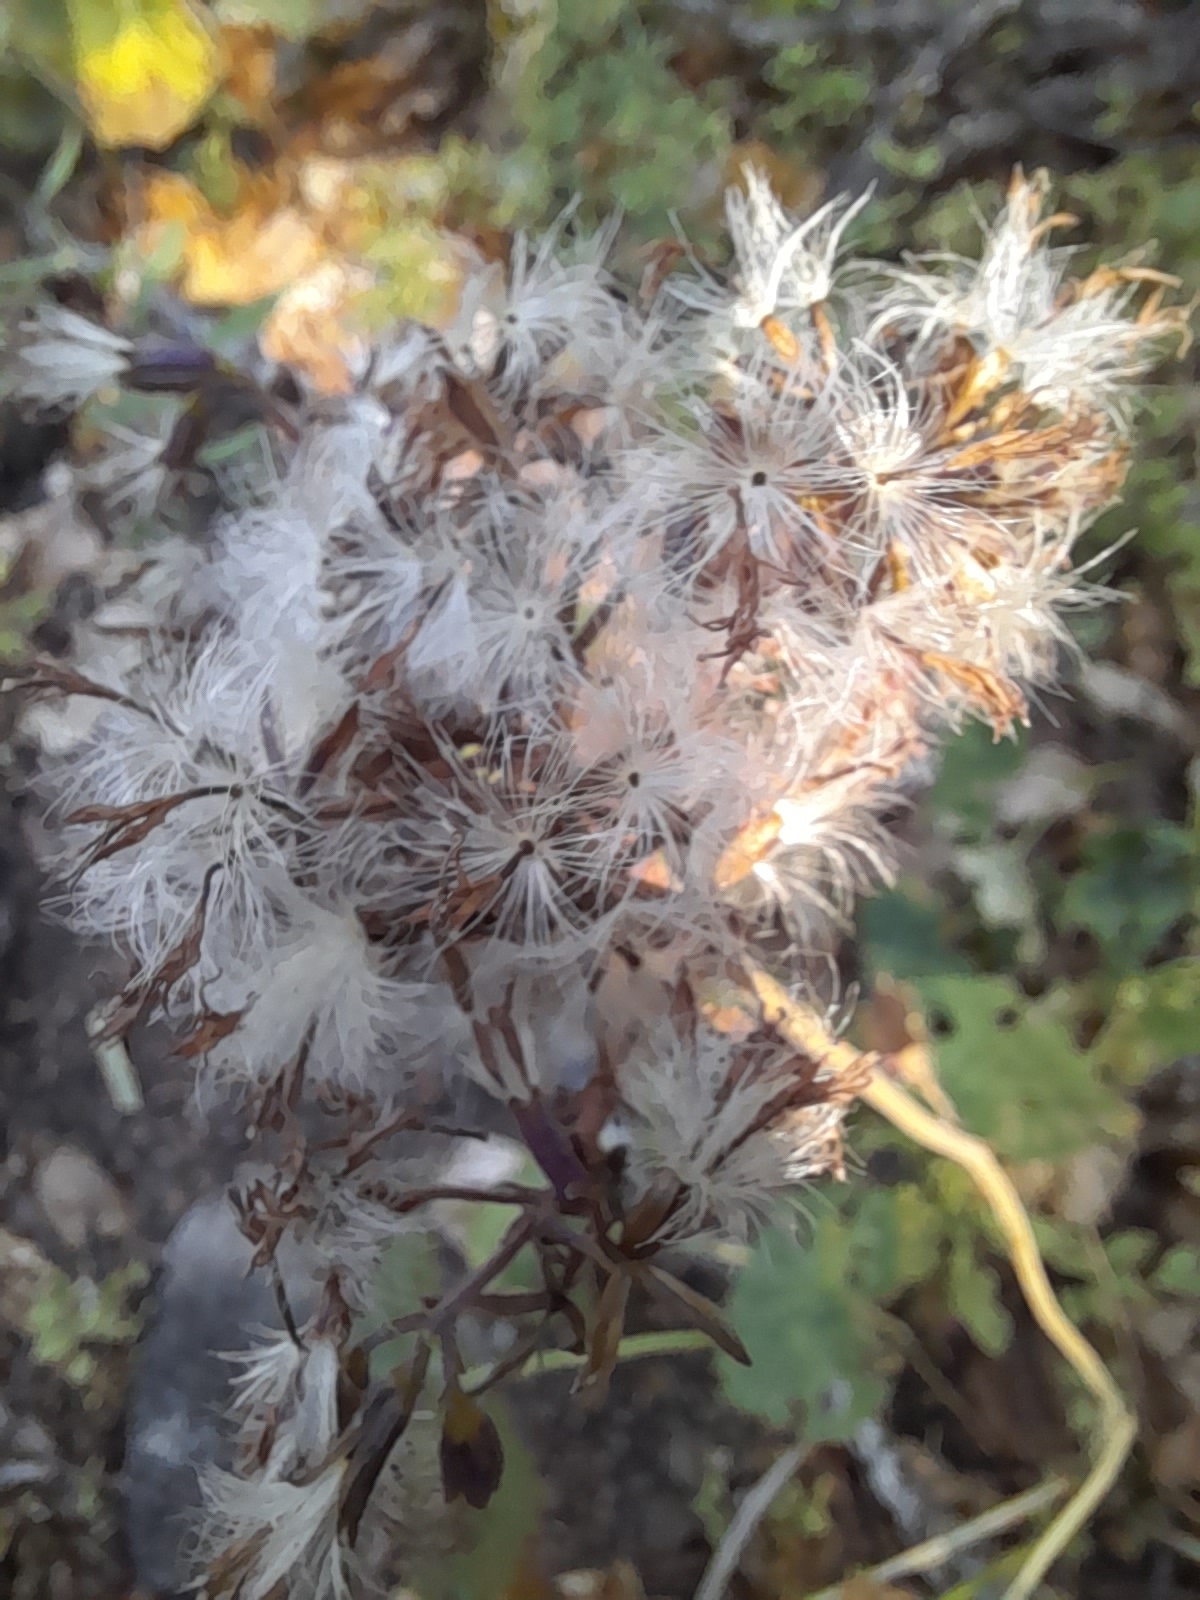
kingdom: Plantae
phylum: Tracheophyta
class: Magnoliopsida
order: Asterales
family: Asteraceae
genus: Adenostyles
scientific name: Adenostyles australis
